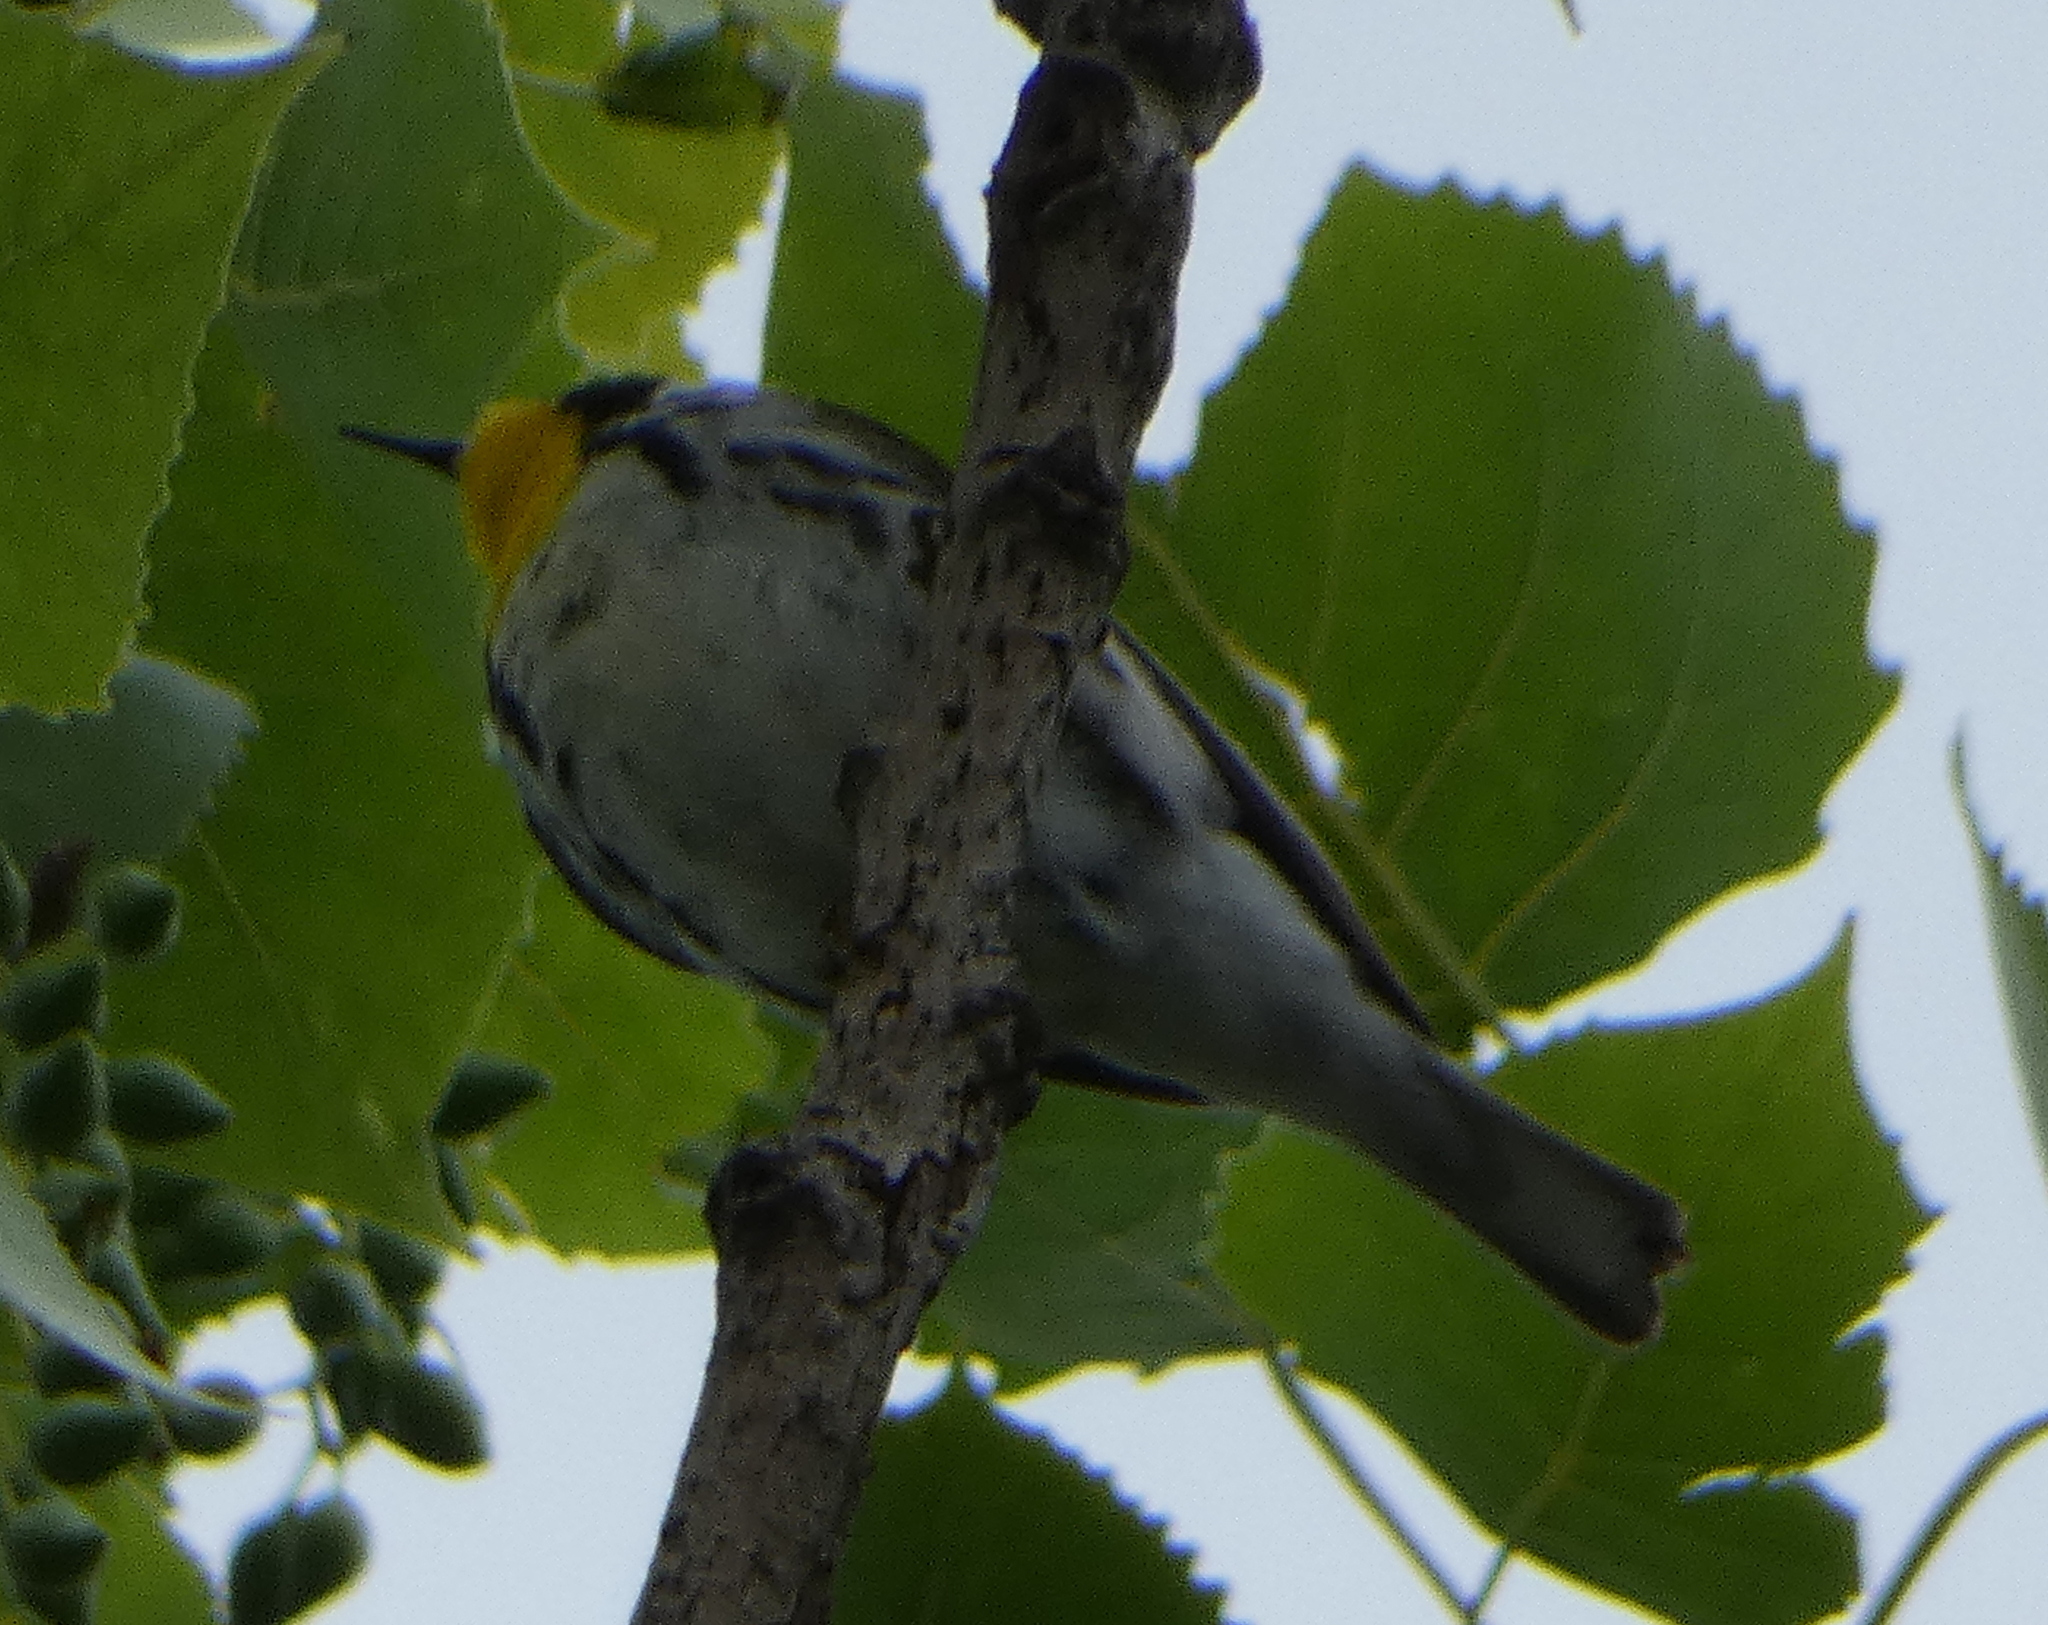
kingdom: Animalia
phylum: Chordata
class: Aves
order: Passeriformes
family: Parulidae
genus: Setophaga
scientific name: Setophaga dominica
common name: Yellow-throated warbler
